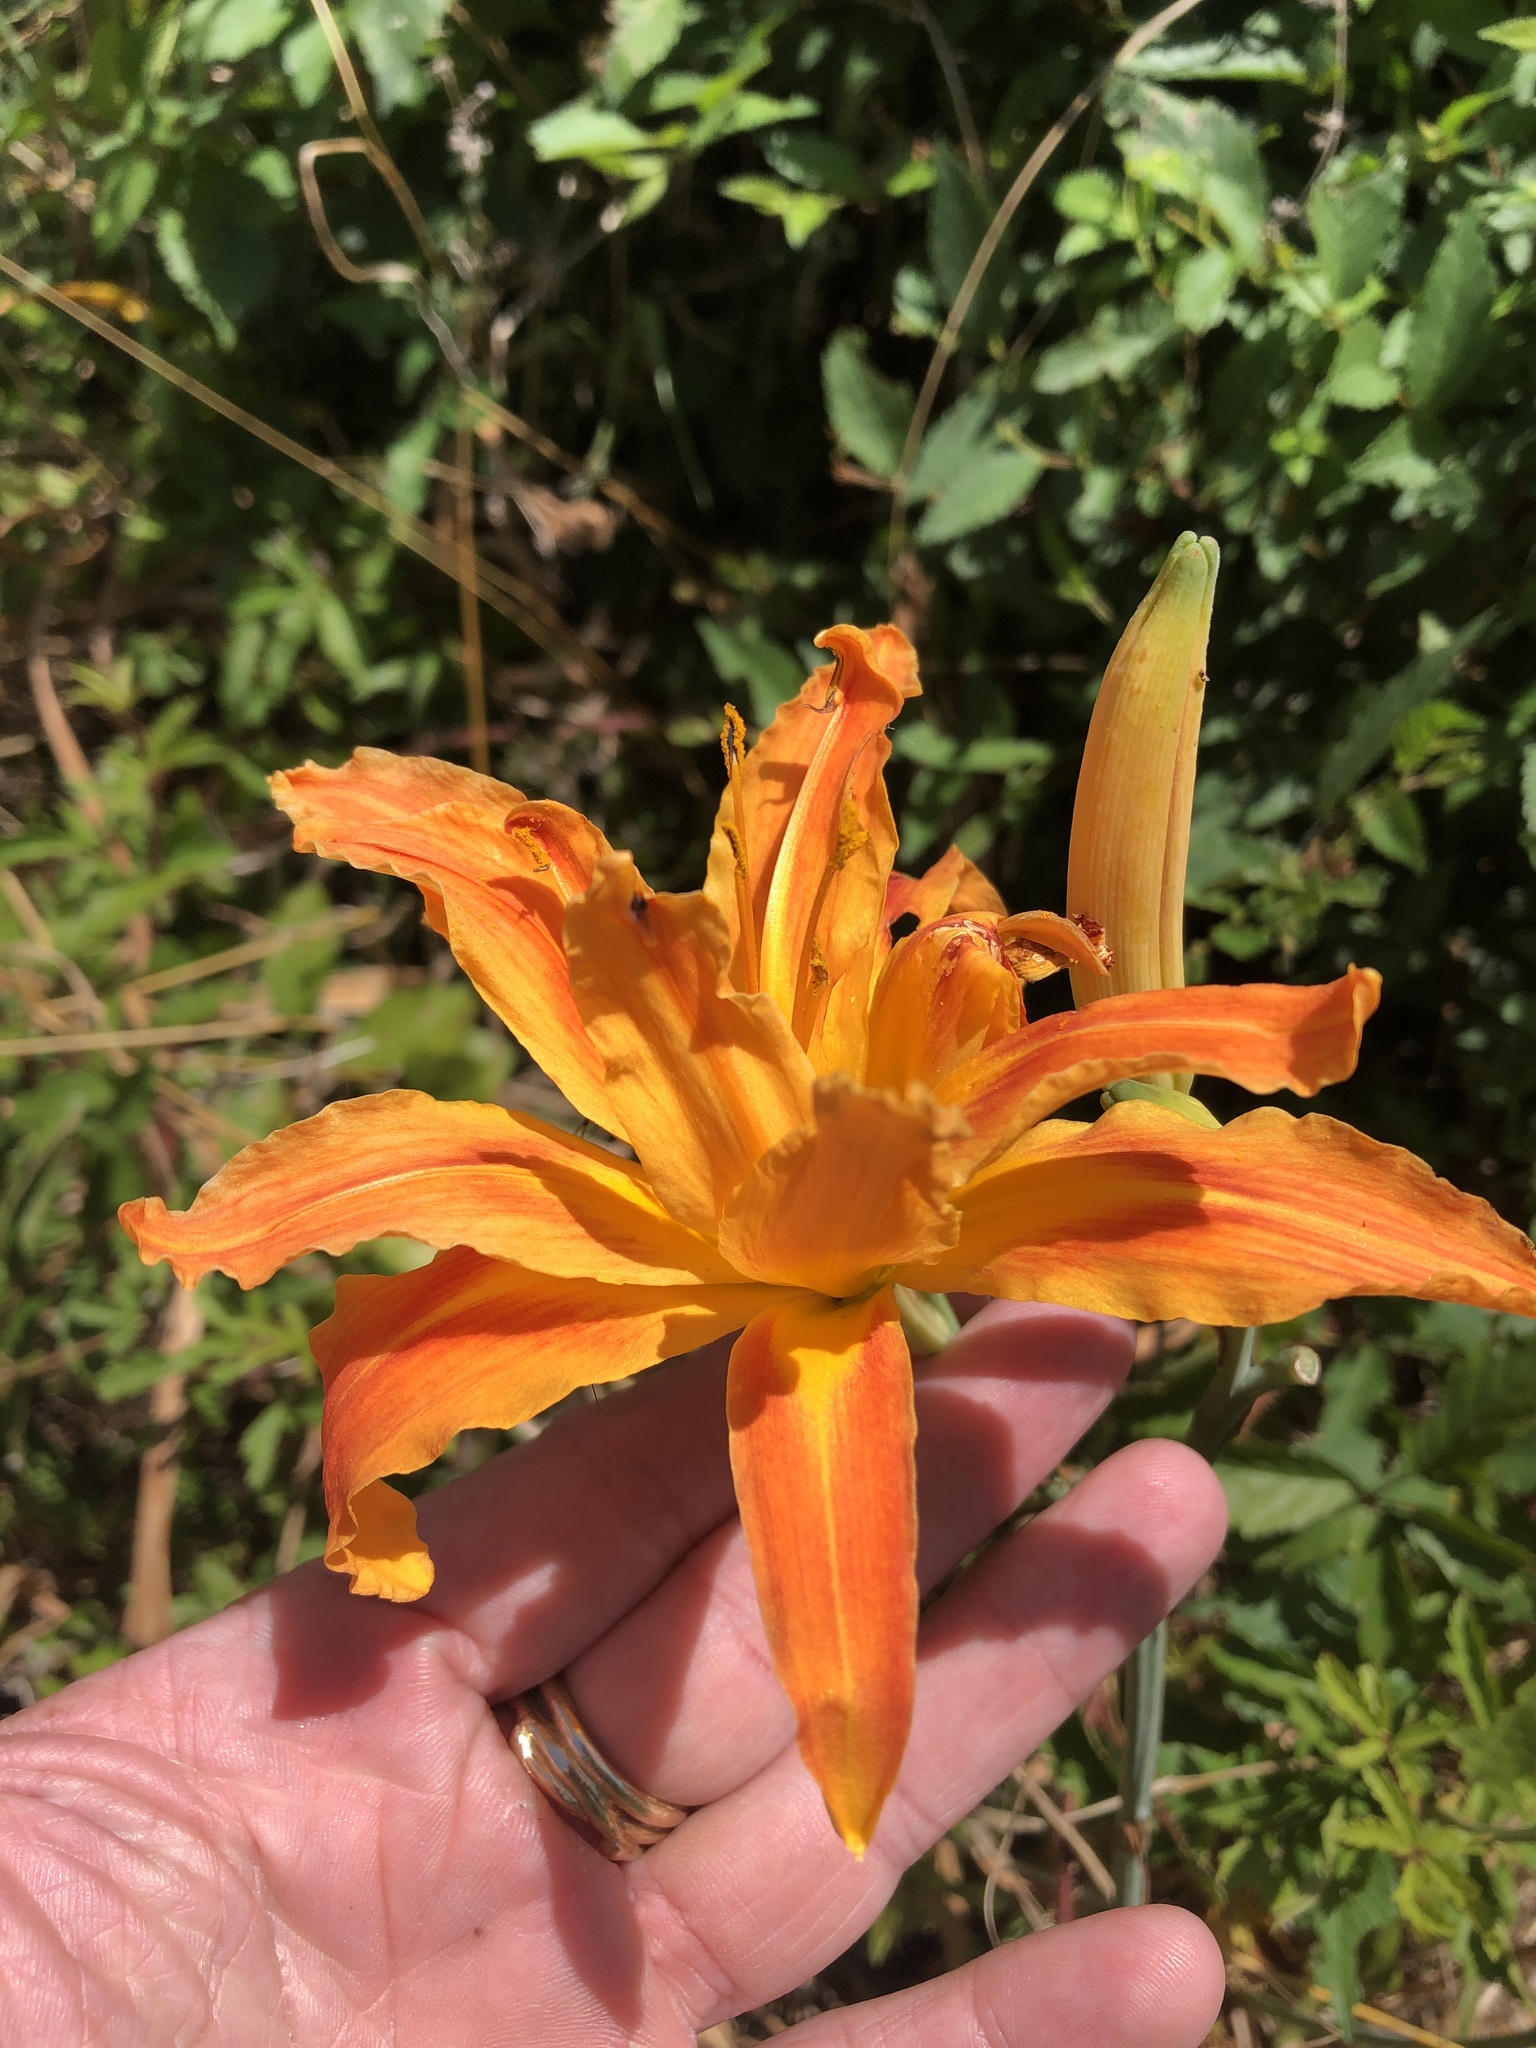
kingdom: Plantae
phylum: Tracheophyta
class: Liliopsida
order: Asparagales
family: Asphodelaceae
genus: Hemerocallis
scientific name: Hemerocallis fulva
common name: Orange day-lily
